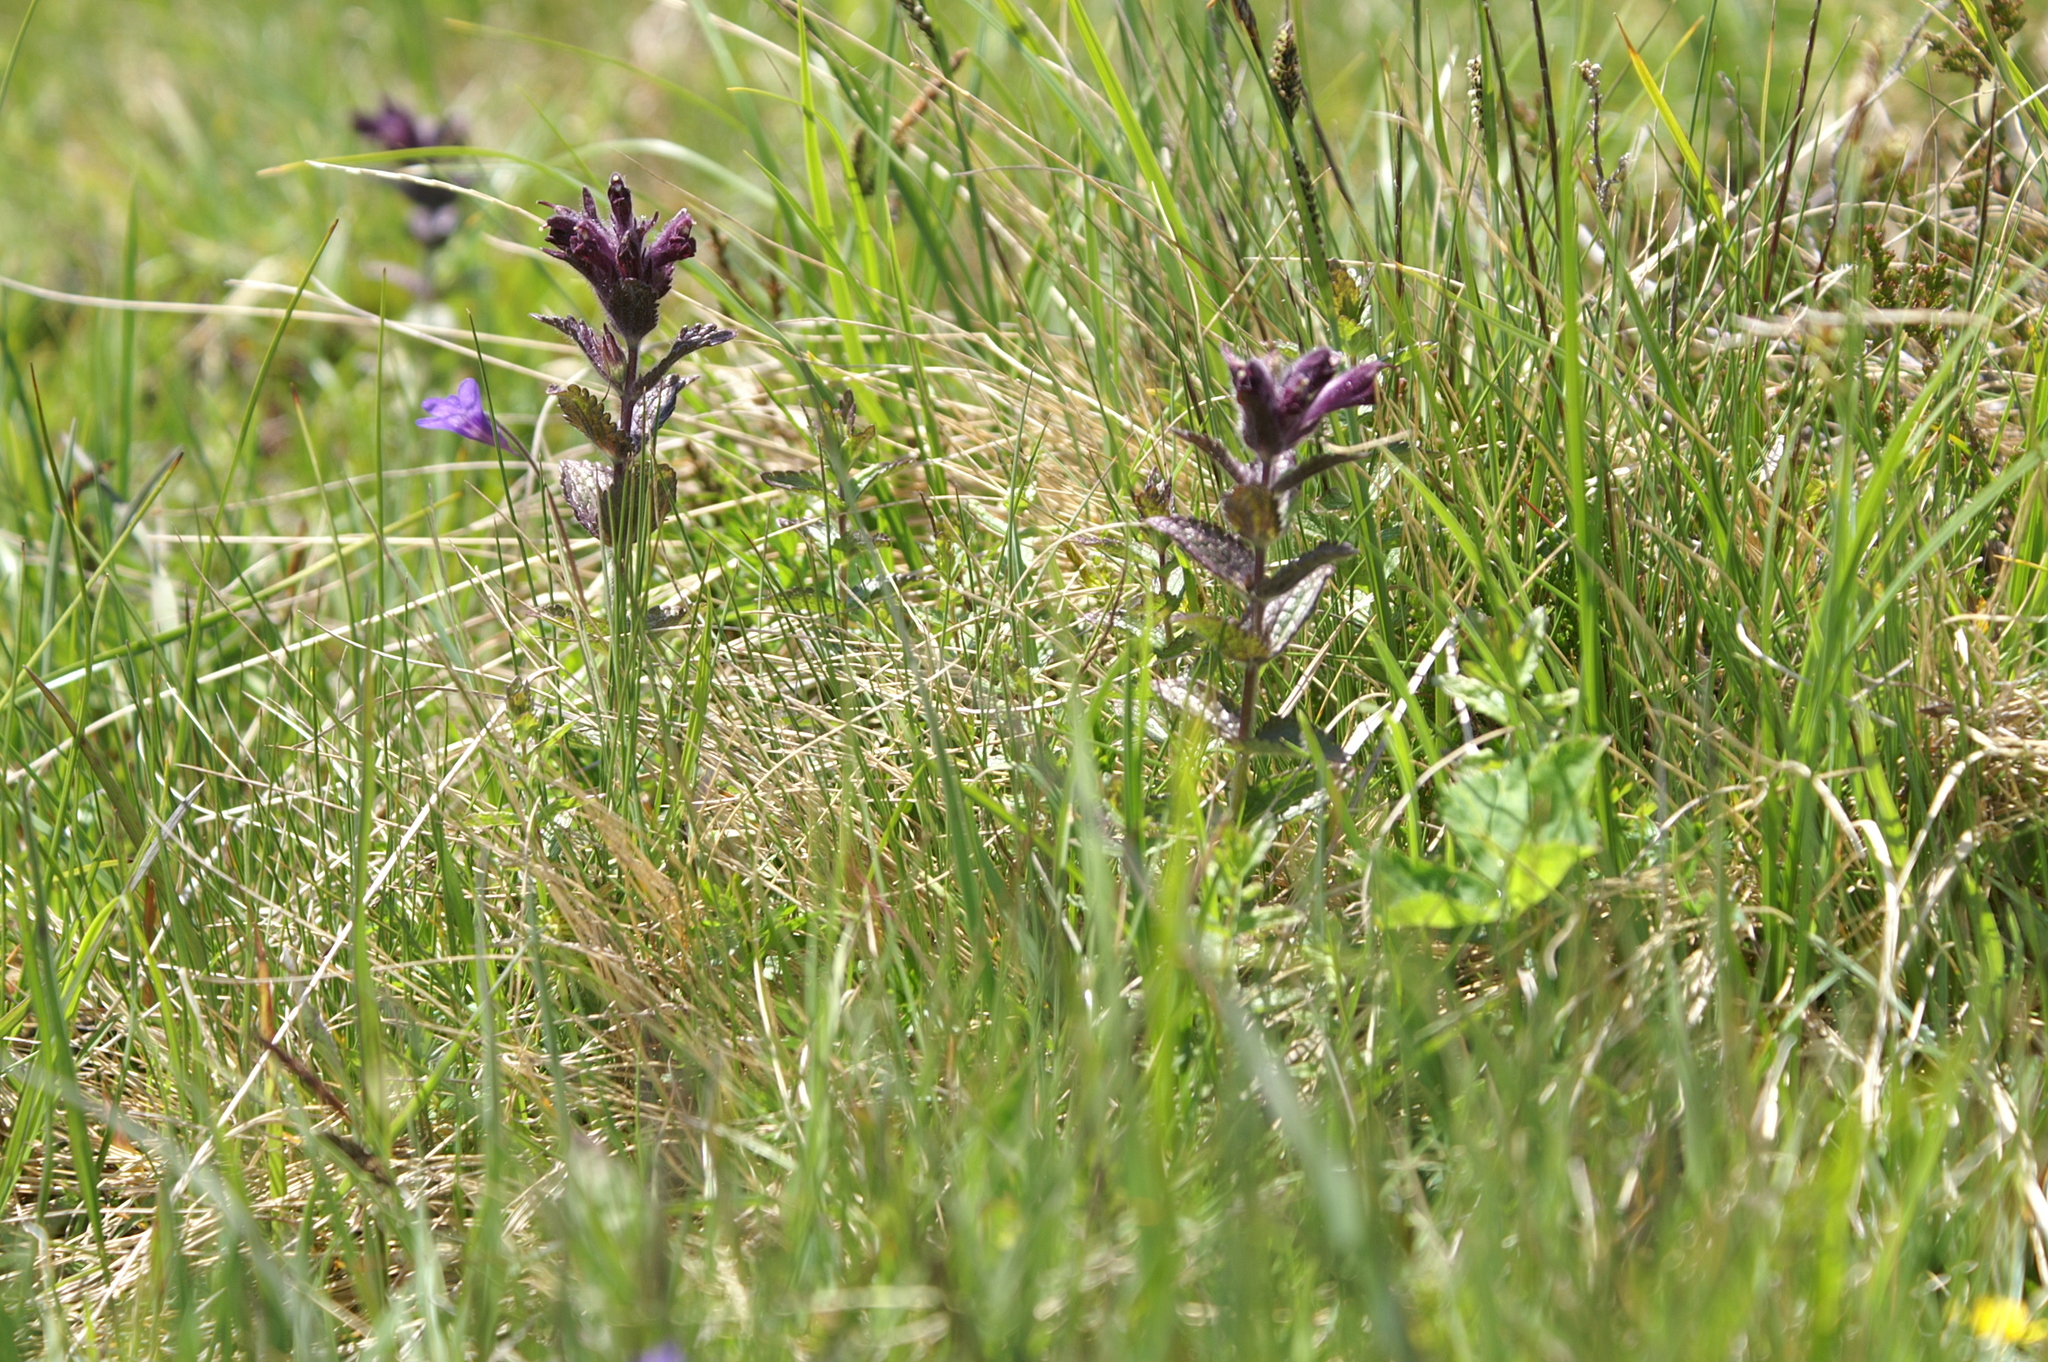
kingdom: Plantae
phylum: Tracheophyta
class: Magnoliopsida
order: Lamiales
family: Orobanchaceae
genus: Bartsia
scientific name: Bartsia alpina
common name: Alpine bartsia
